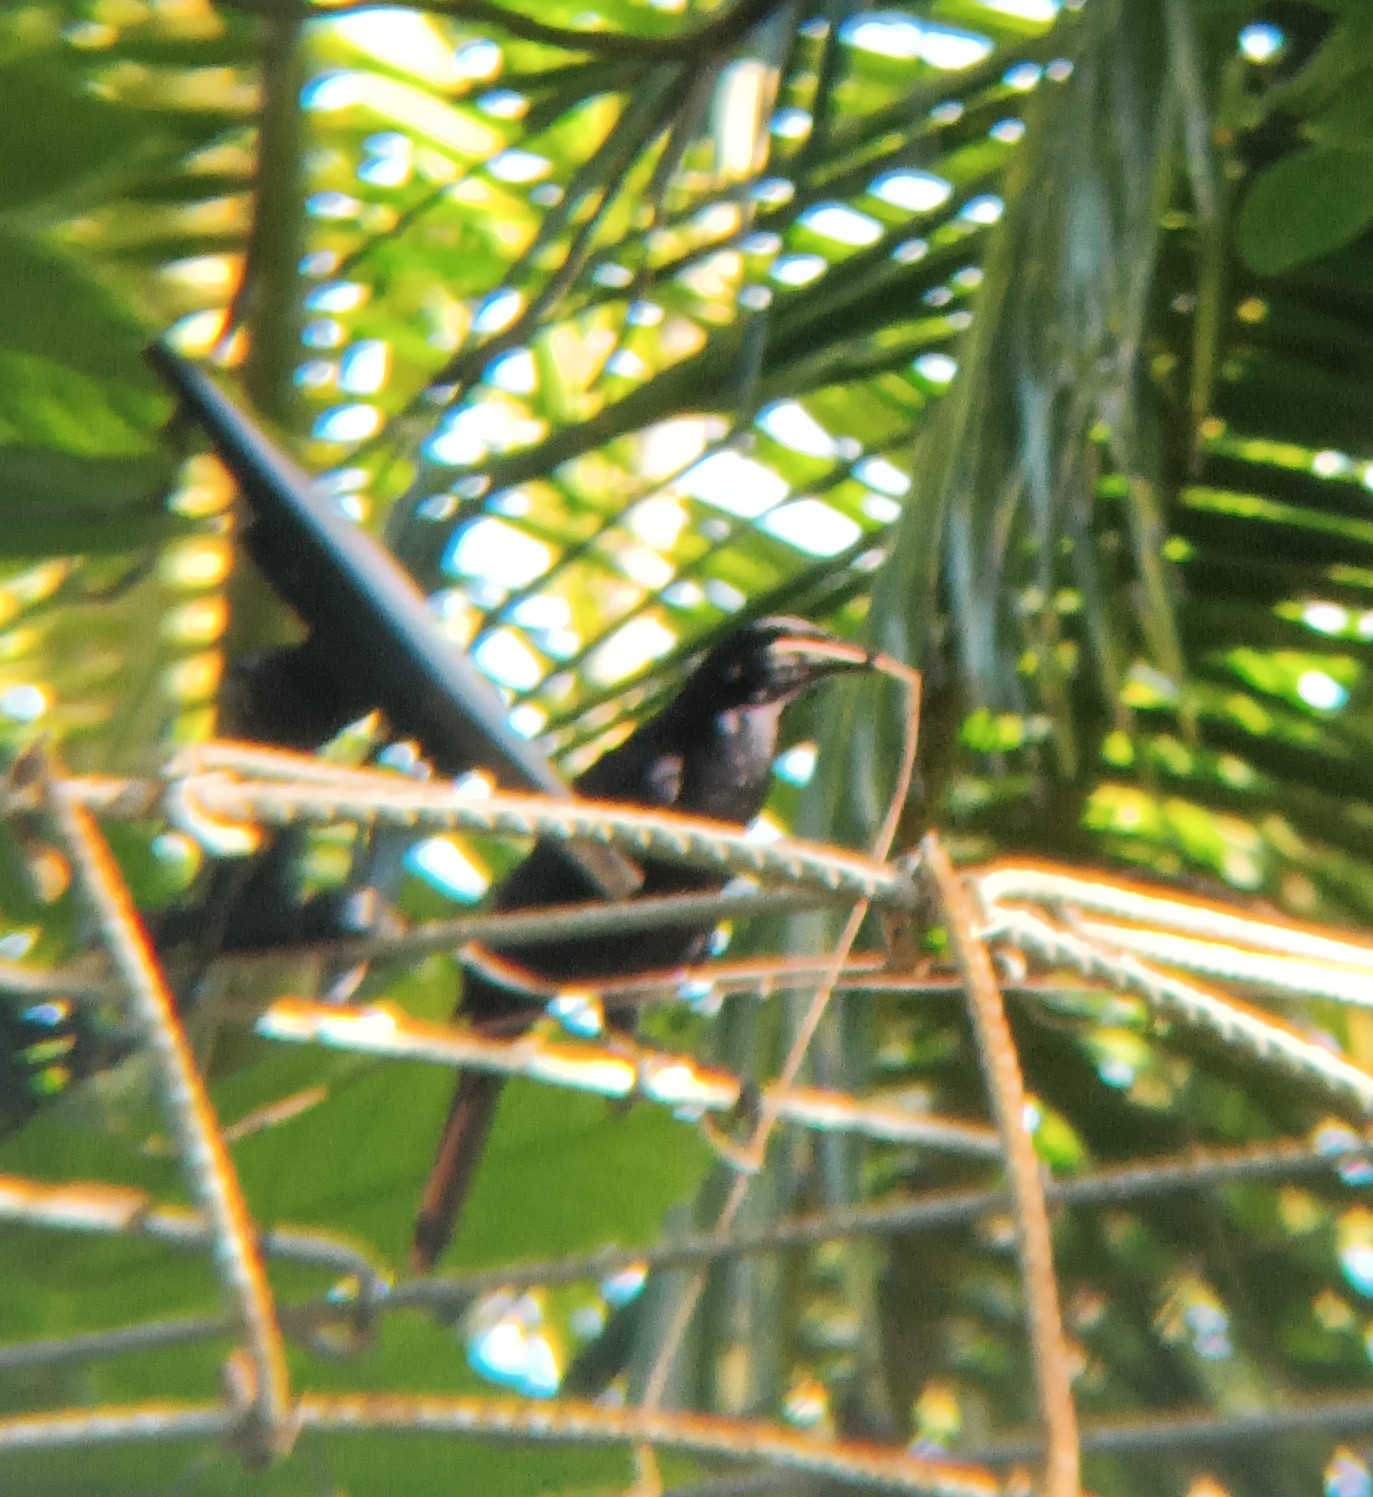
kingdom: Animalia
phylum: Chordata
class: Aves
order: Passeriformes
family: Icteridae
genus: Quiscalus
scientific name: Quiscalus mexicanus
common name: Great-tailed grackle
